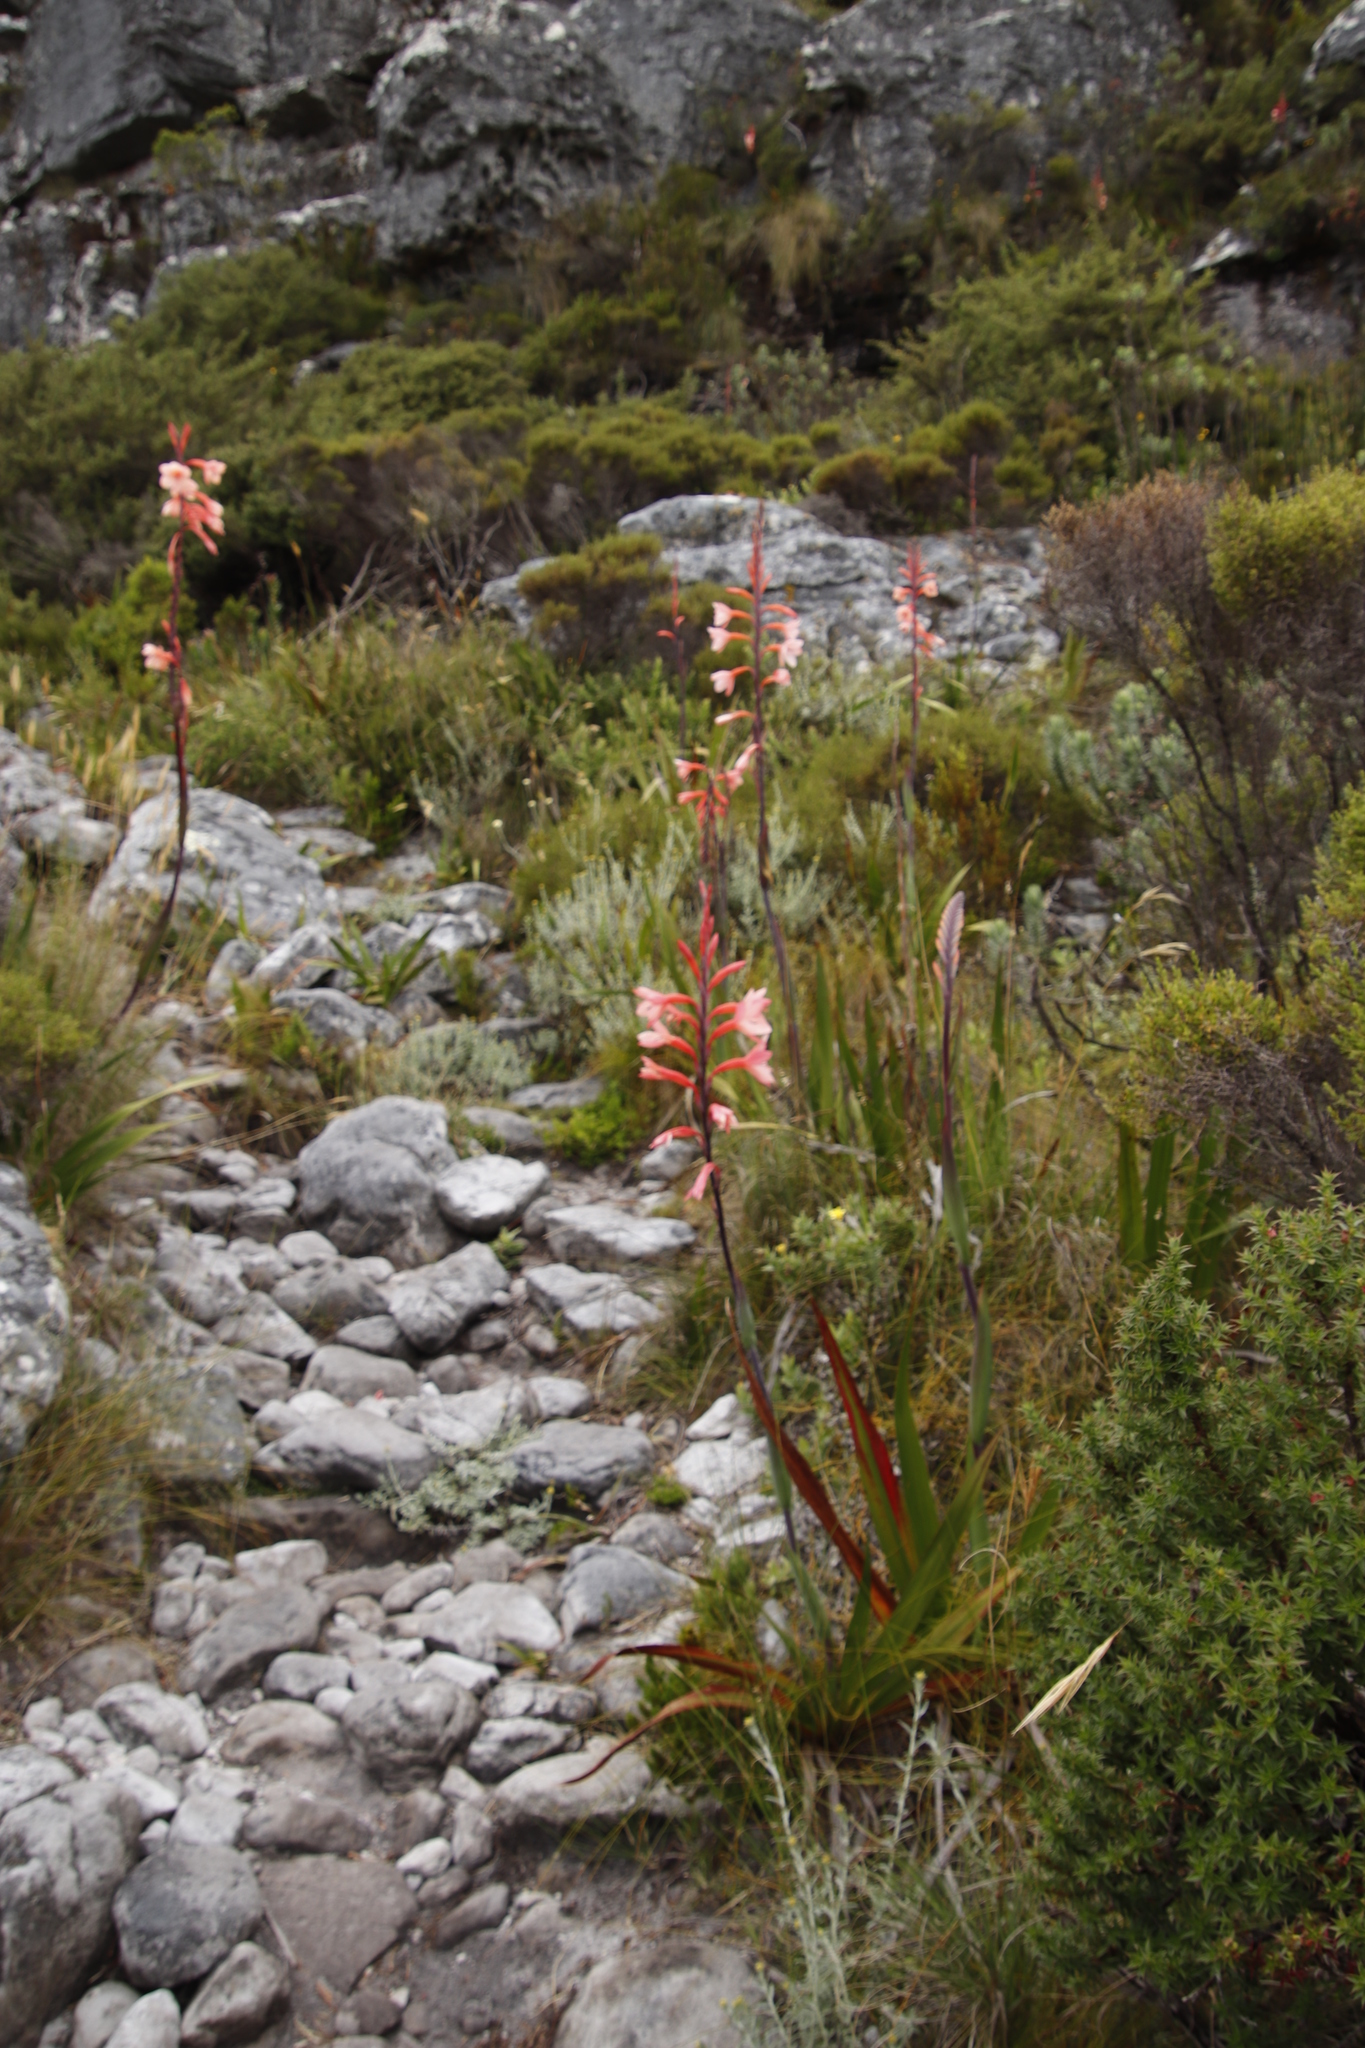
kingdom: Plantae
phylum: Tracheophyta
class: Liliopsida
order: Asparagales
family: Iridaceae
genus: Watsonia
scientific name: Watsonia tabularis
